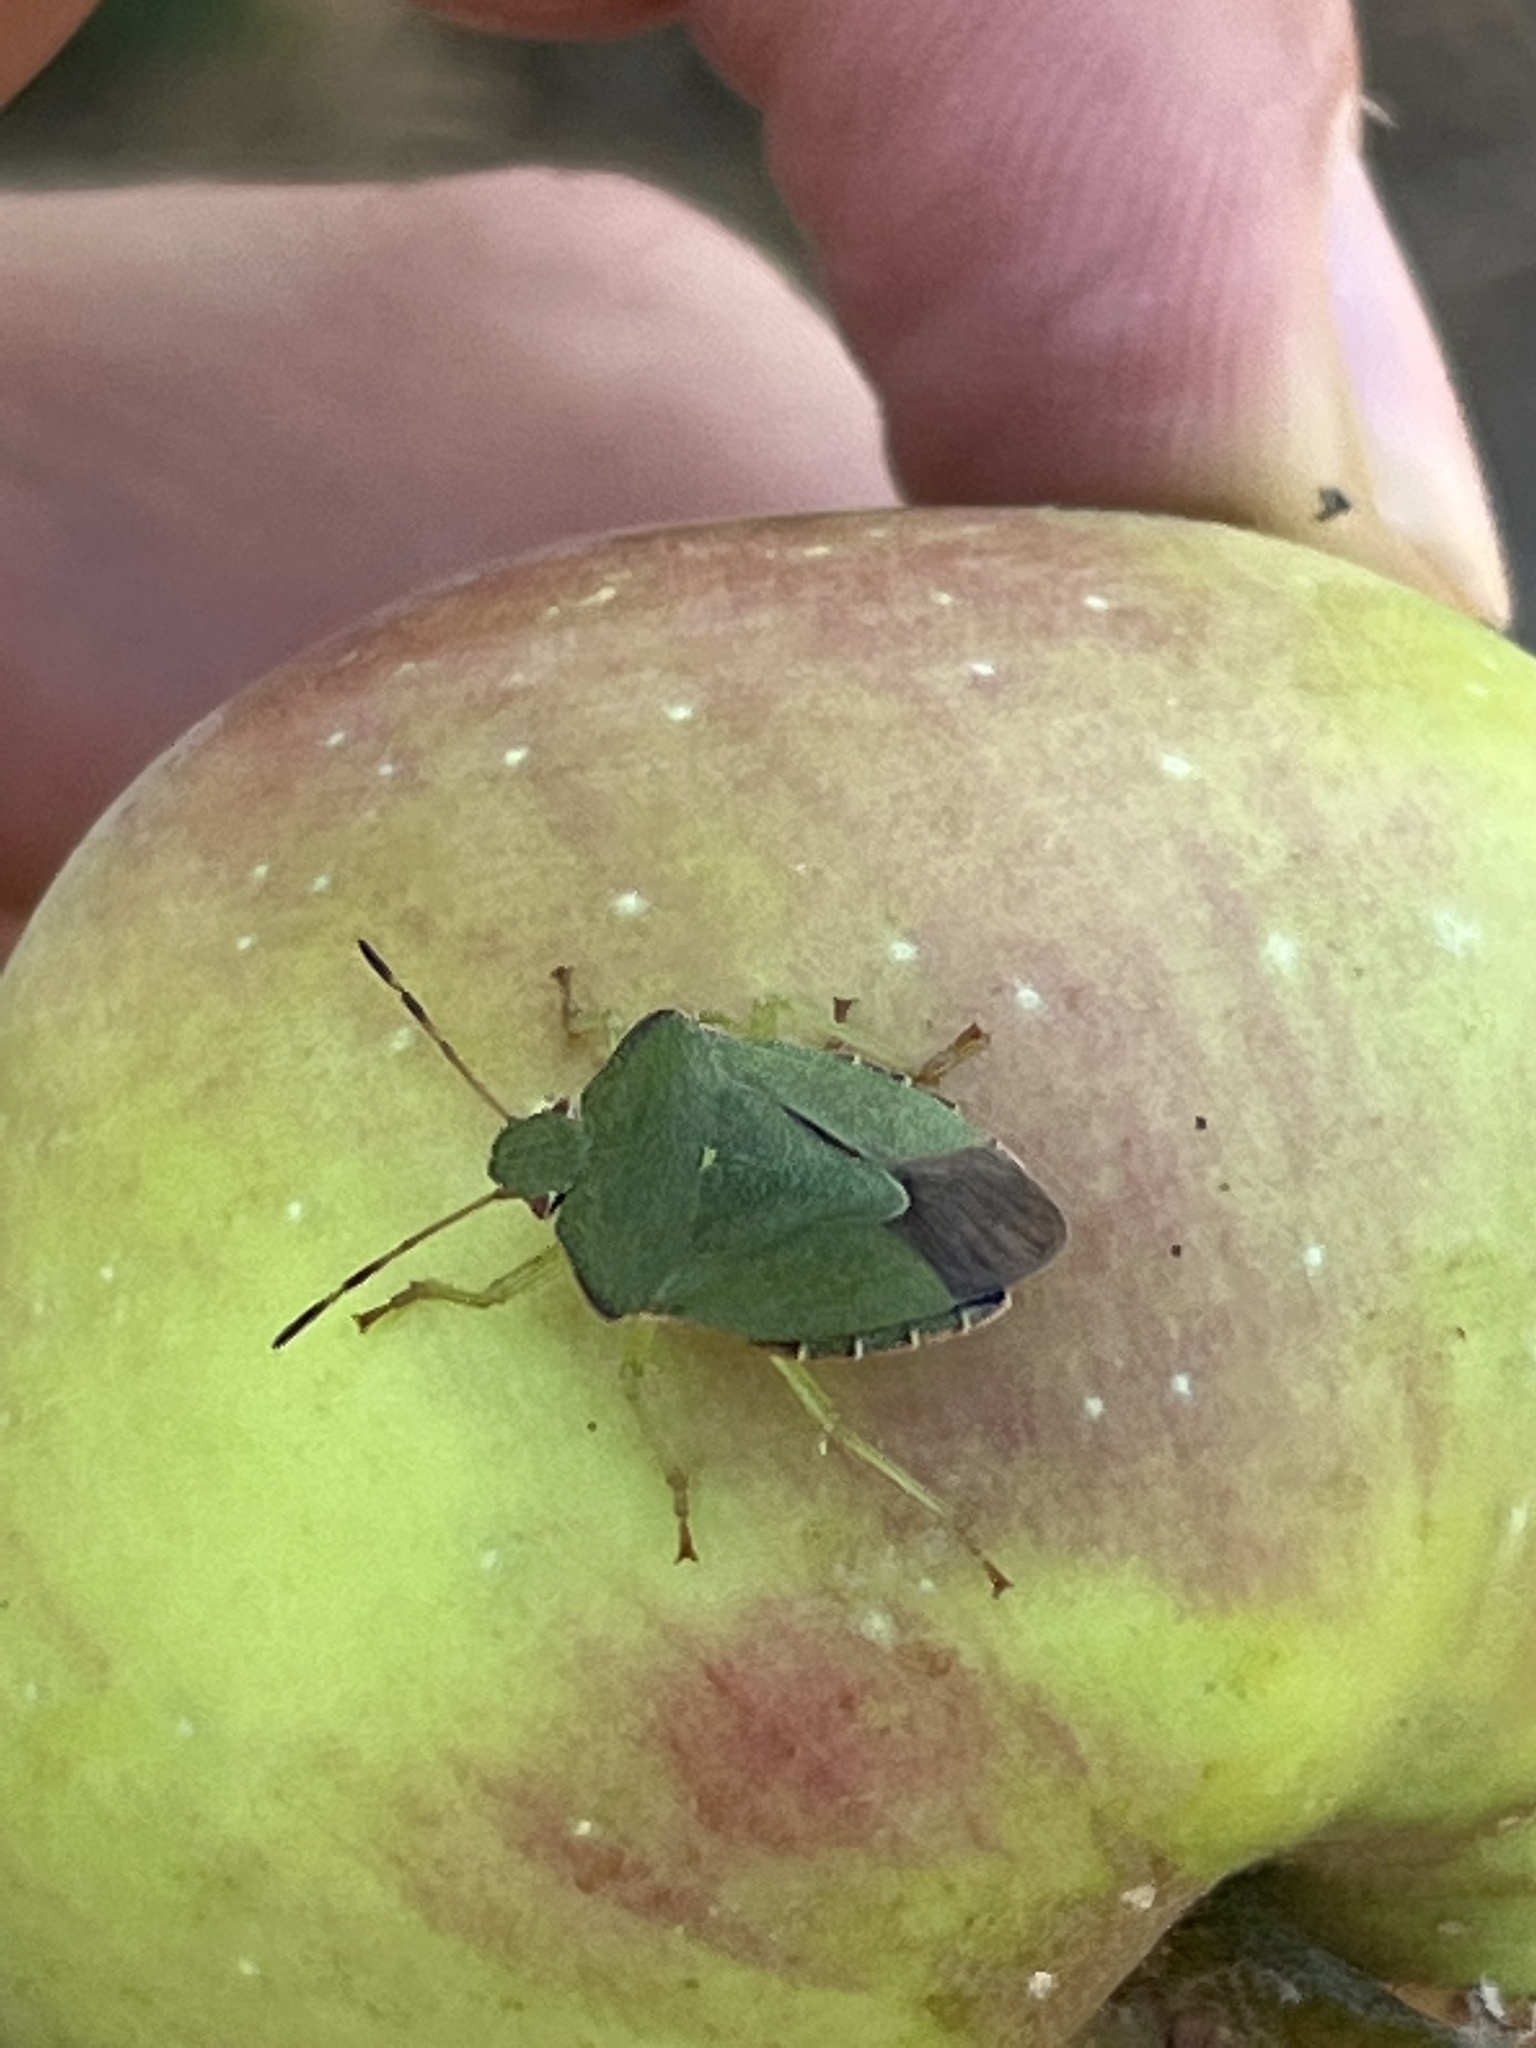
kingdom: Animalia
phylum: Arthropoda
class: Insecta
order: Hemiptera
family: Pentatomidae
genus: Palomena
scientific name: Palomena prasina
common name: Green shieldbug
